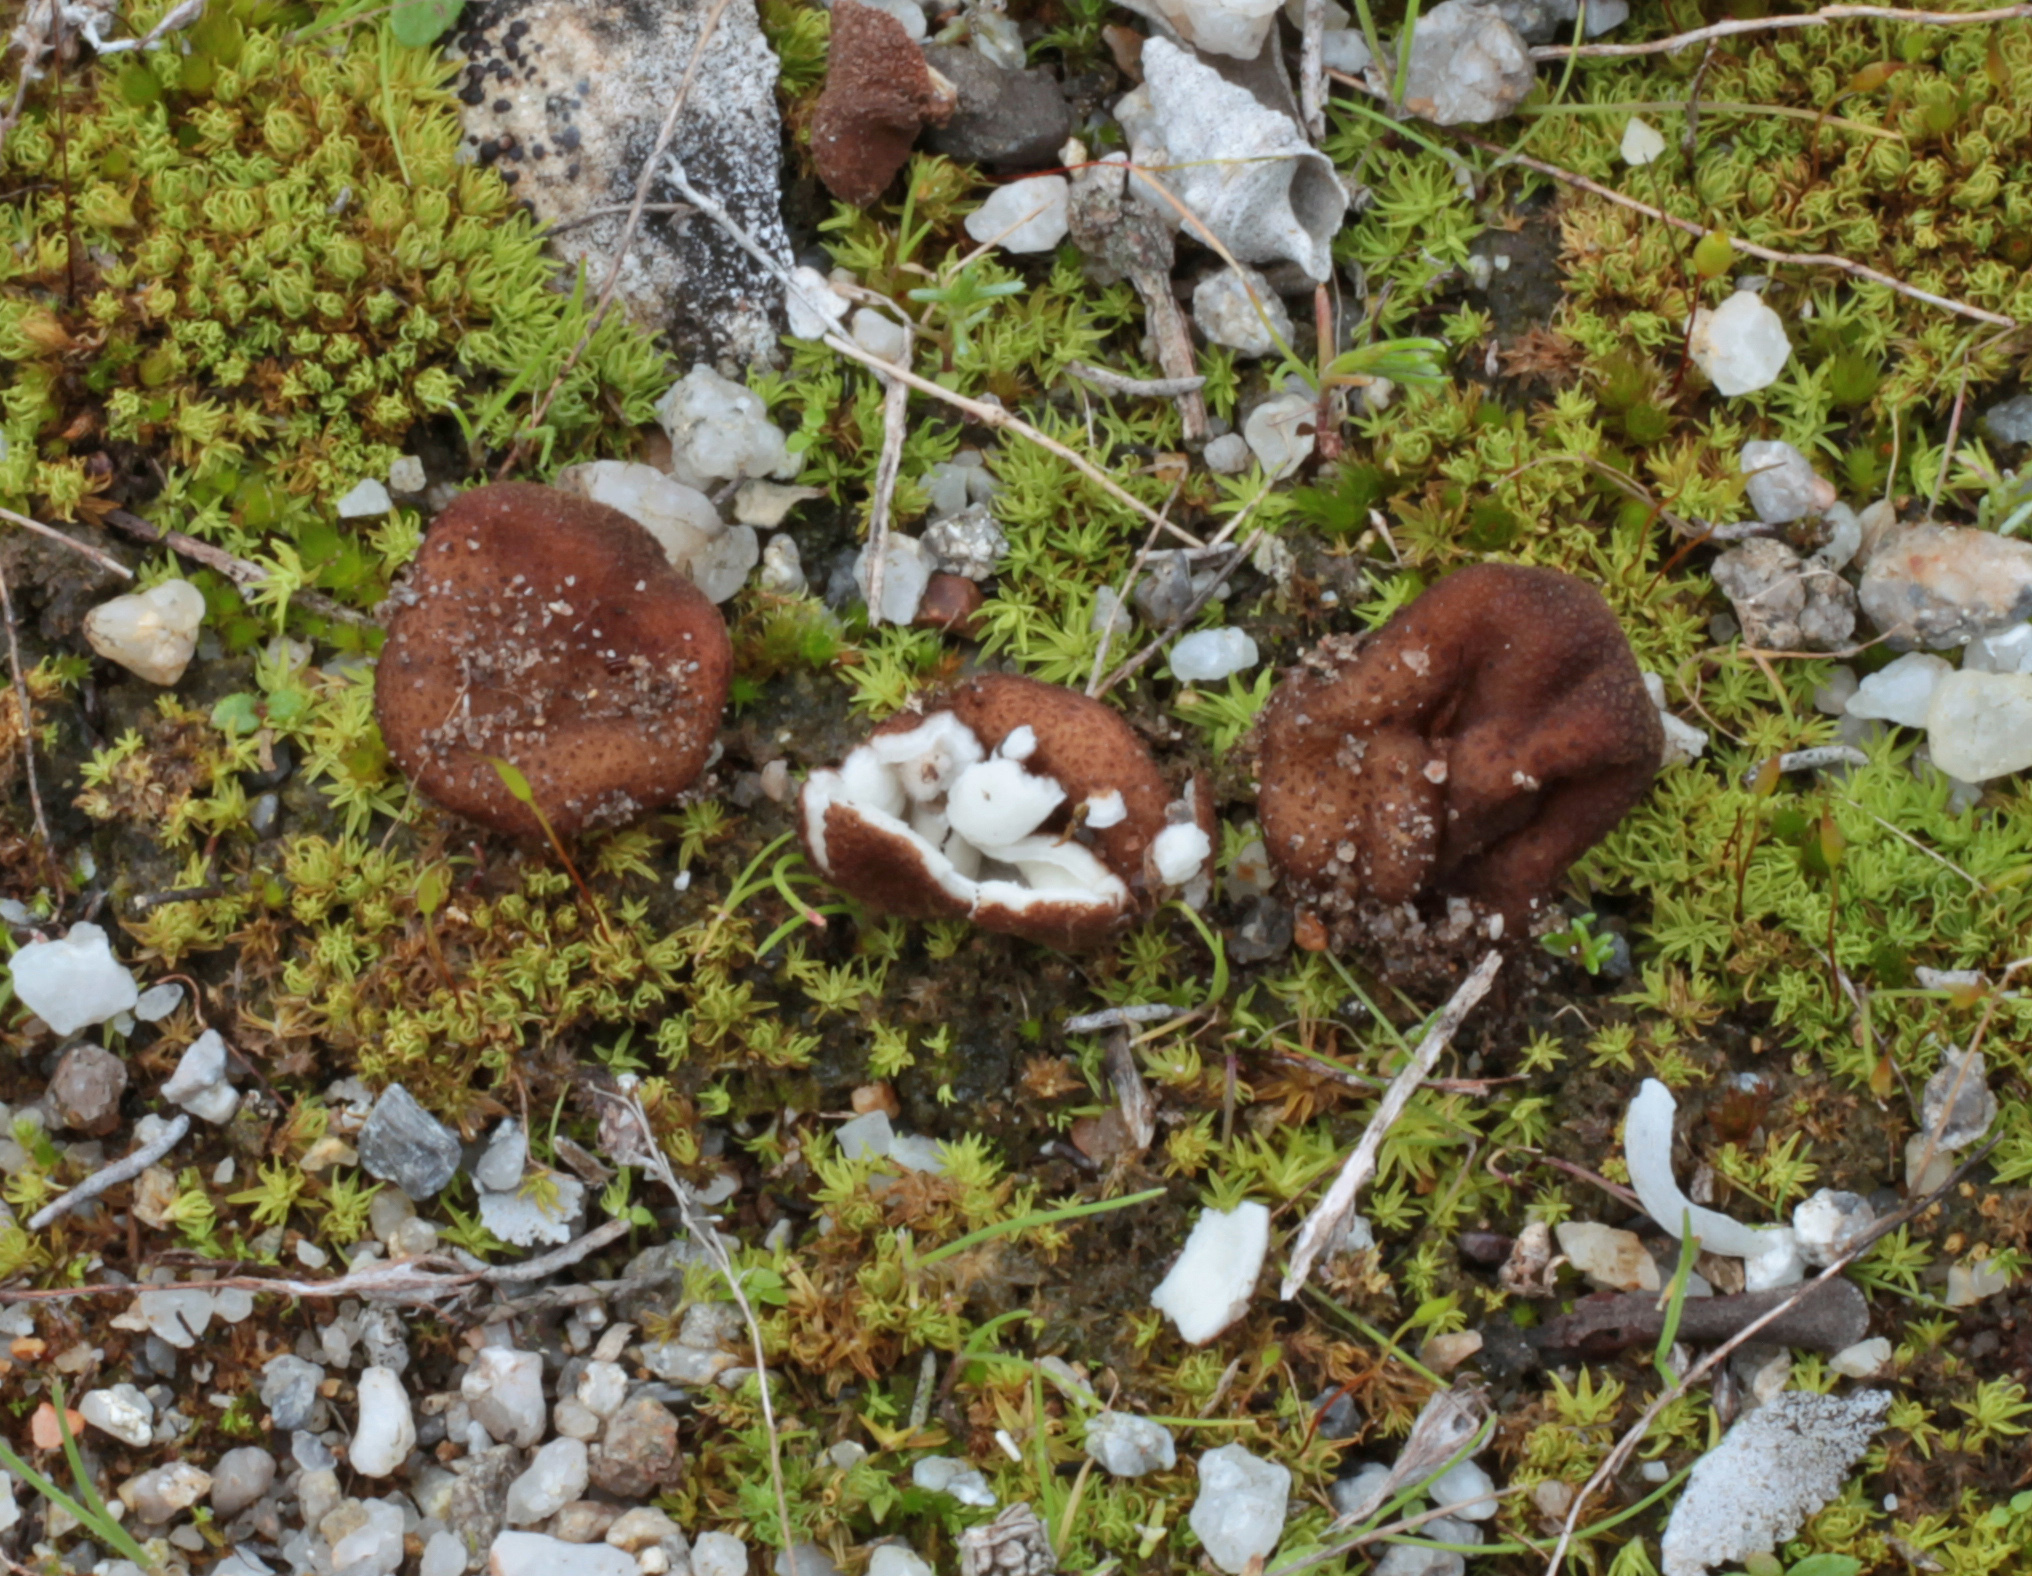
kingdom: Fungi
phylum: Ascomycota
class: Pezizomycetes
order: Pezizales
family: Pyronemataceae
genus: Geopora
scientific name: Geopora clausa
